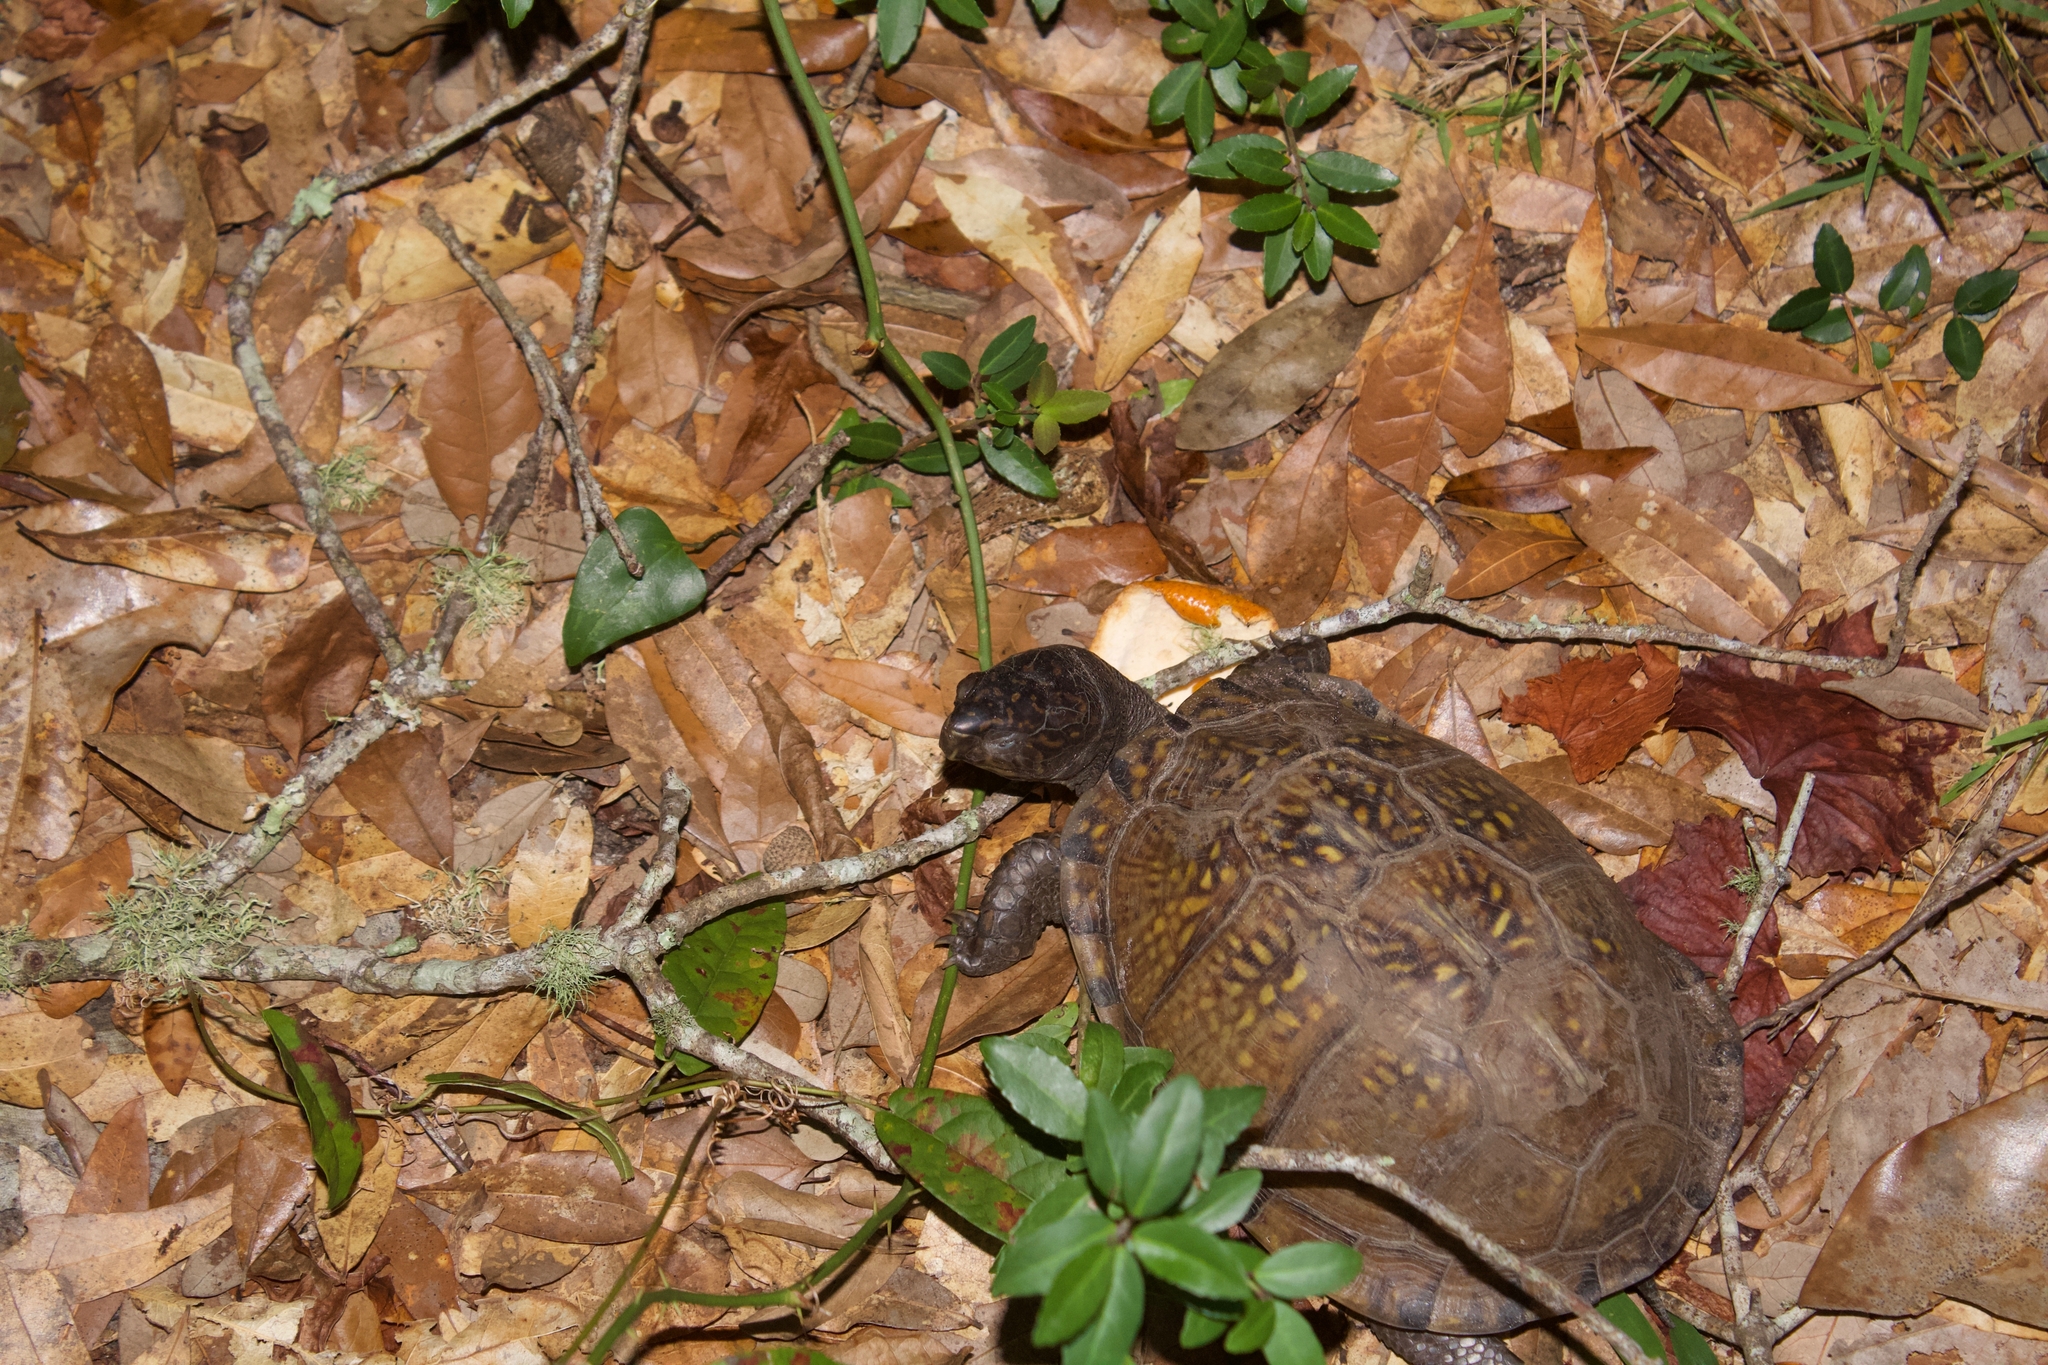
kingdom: Animalia
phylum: Chordata
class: Testudines
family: Emydidae
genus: Terrapene
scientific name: Terrapene carolina
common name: Common box turtle
